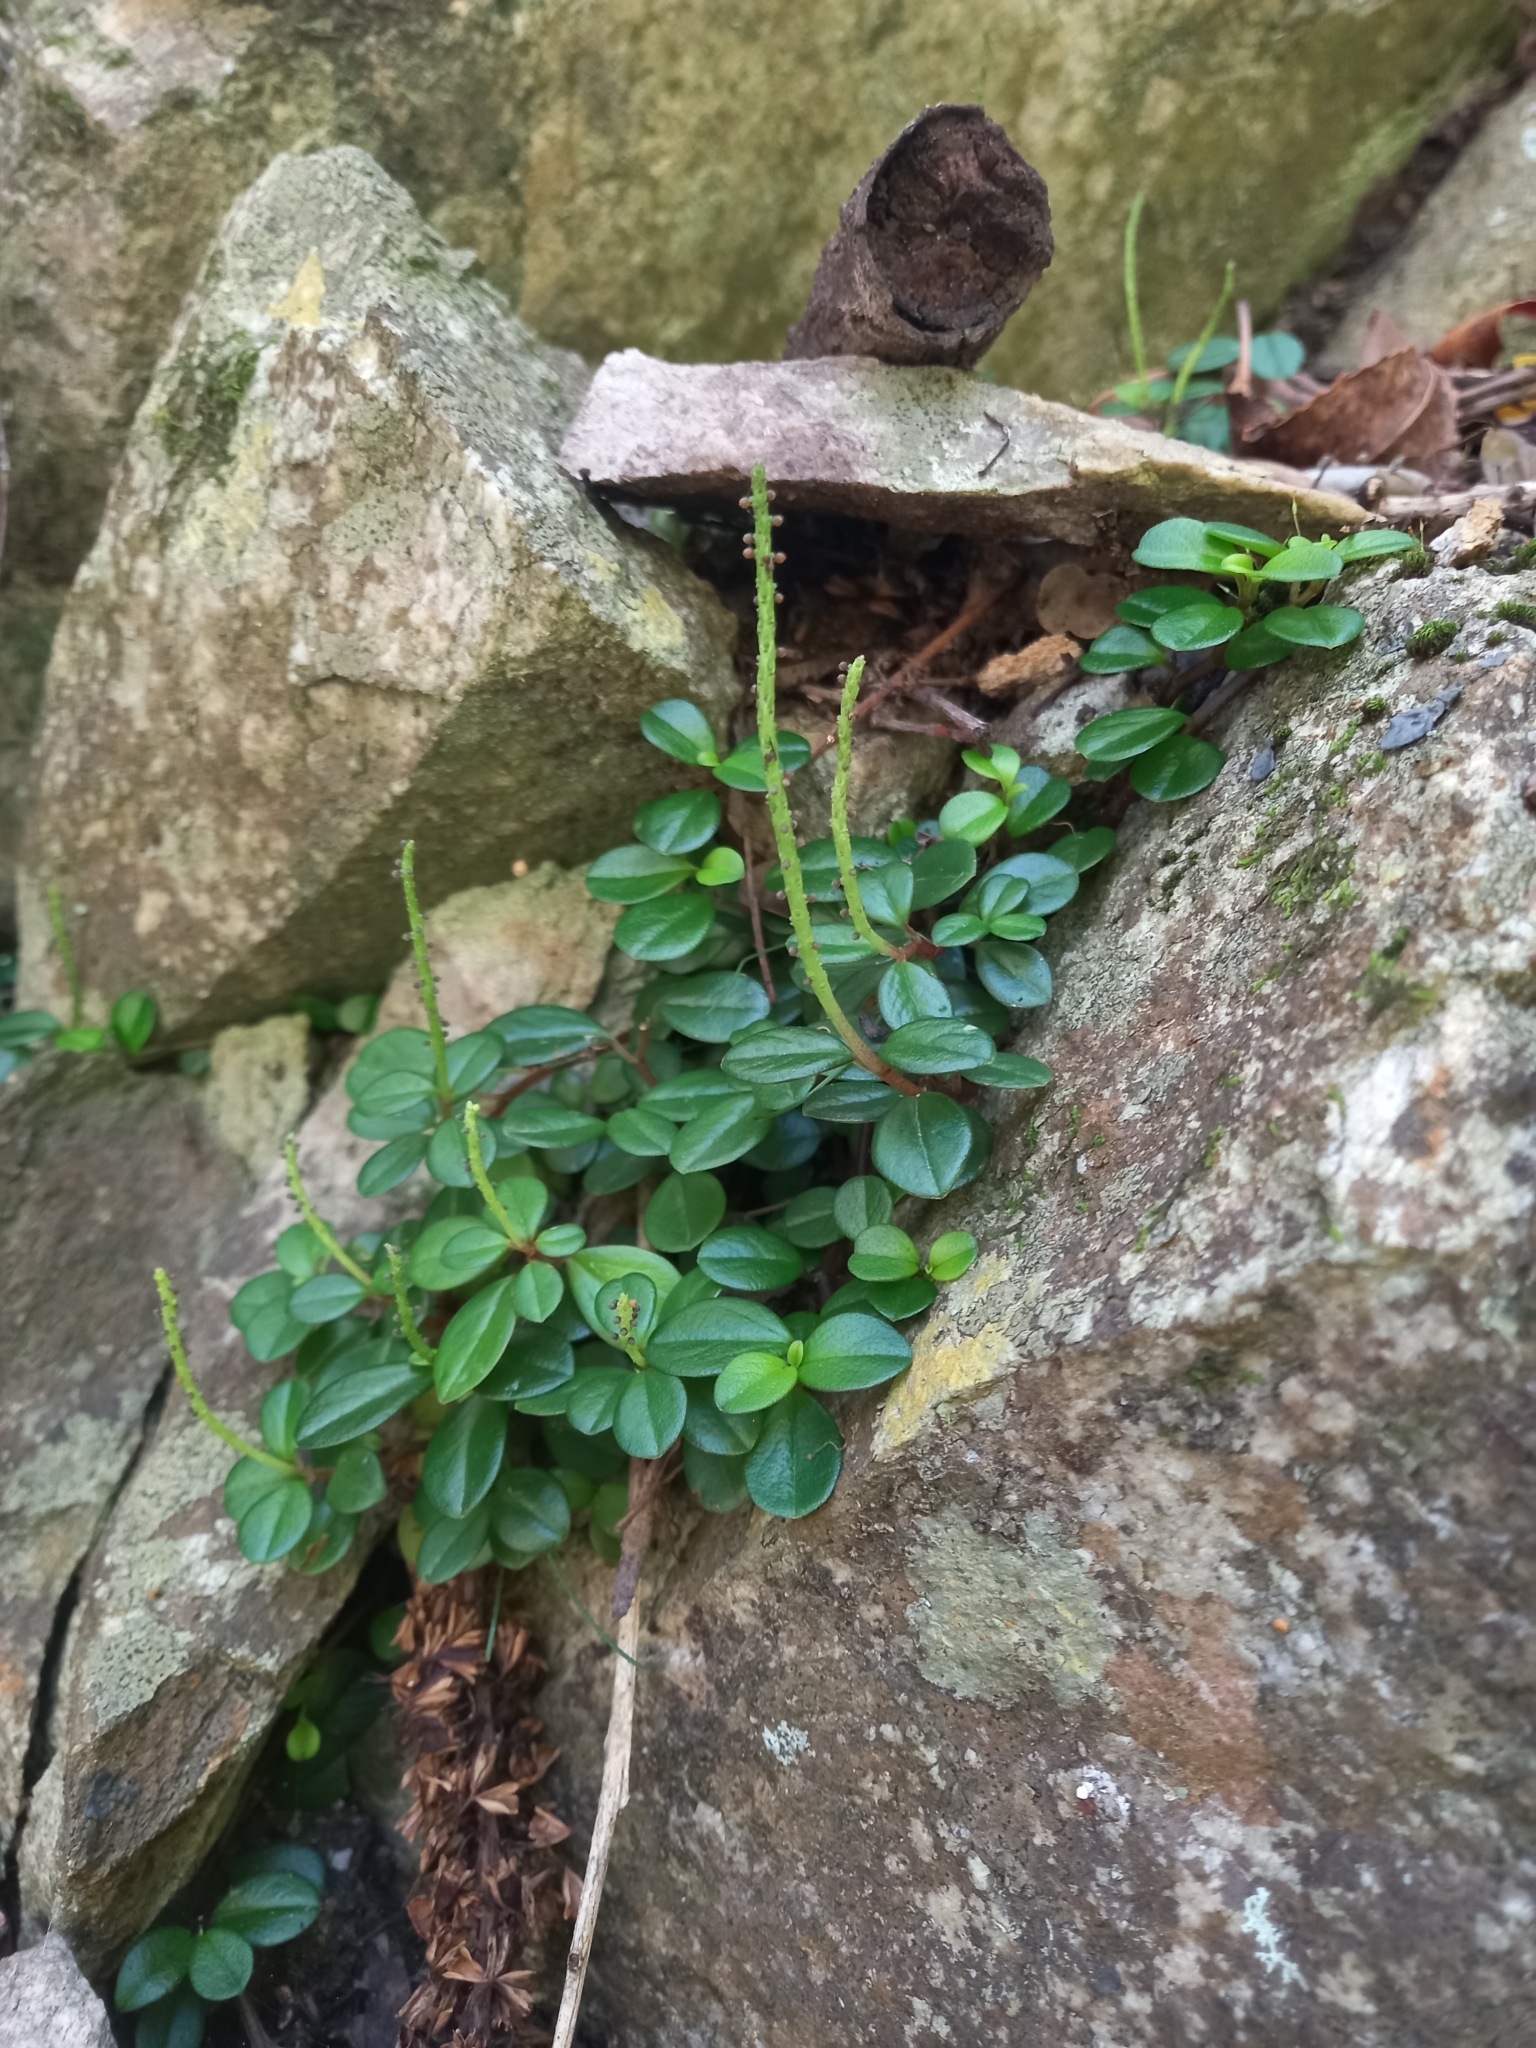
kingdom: Plantae
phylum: Tracheophyta
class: Magnoliopsida
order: Piperales
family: Piperaceae
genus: Peperomia
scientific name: Peperomia retusa
